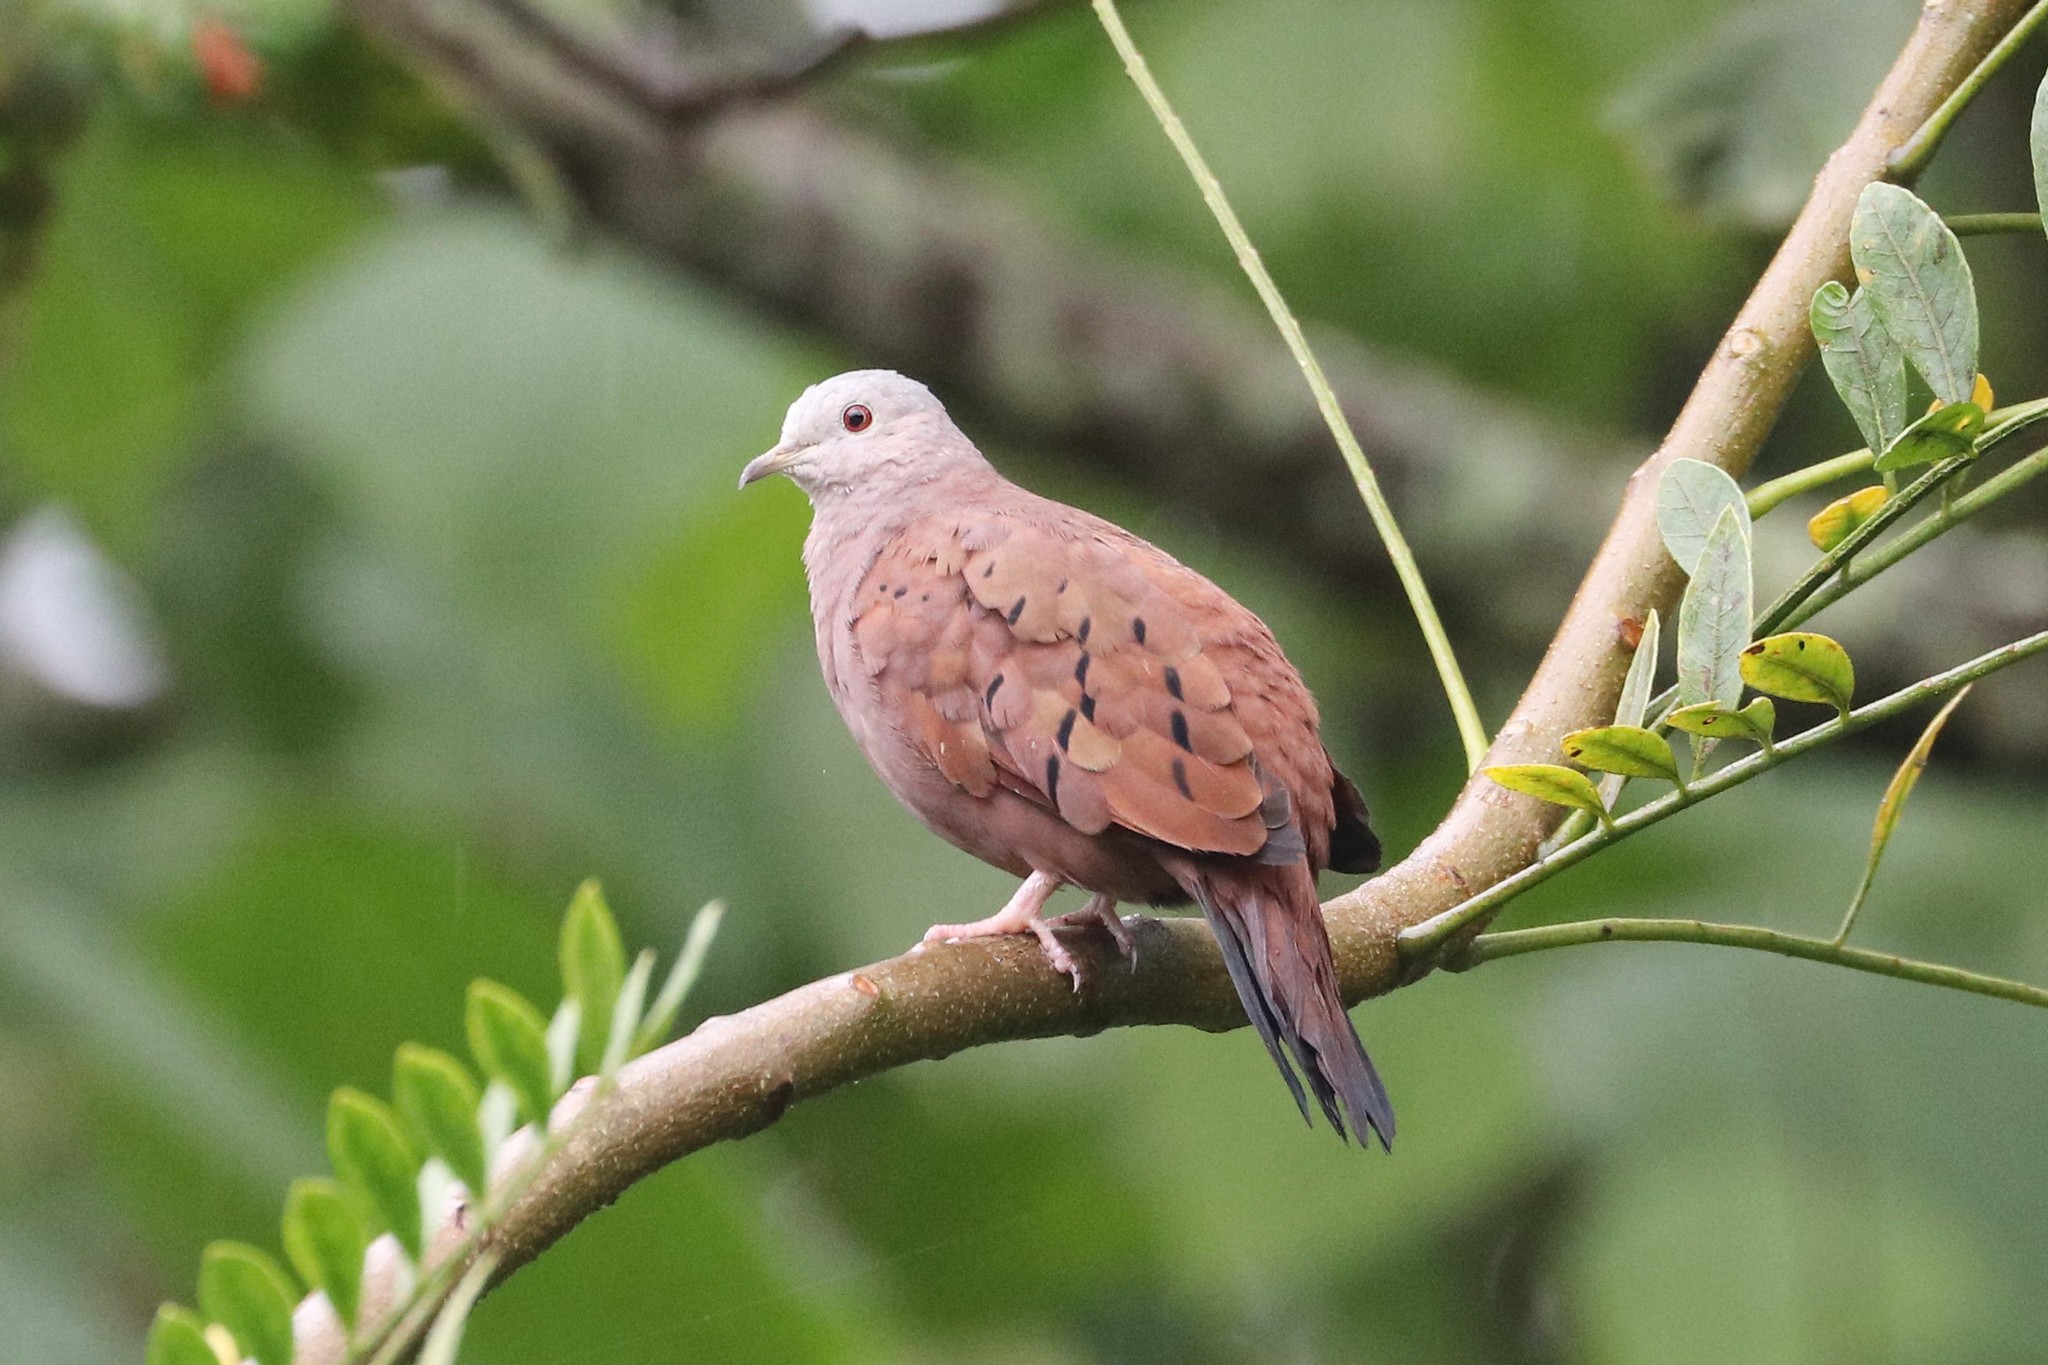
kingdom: Animalia
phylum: Chordata
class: Aves
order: Columbiformes
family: Columbidae
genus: Columbina
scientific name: Columbina talpacoti
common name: Ruddy ground dove
